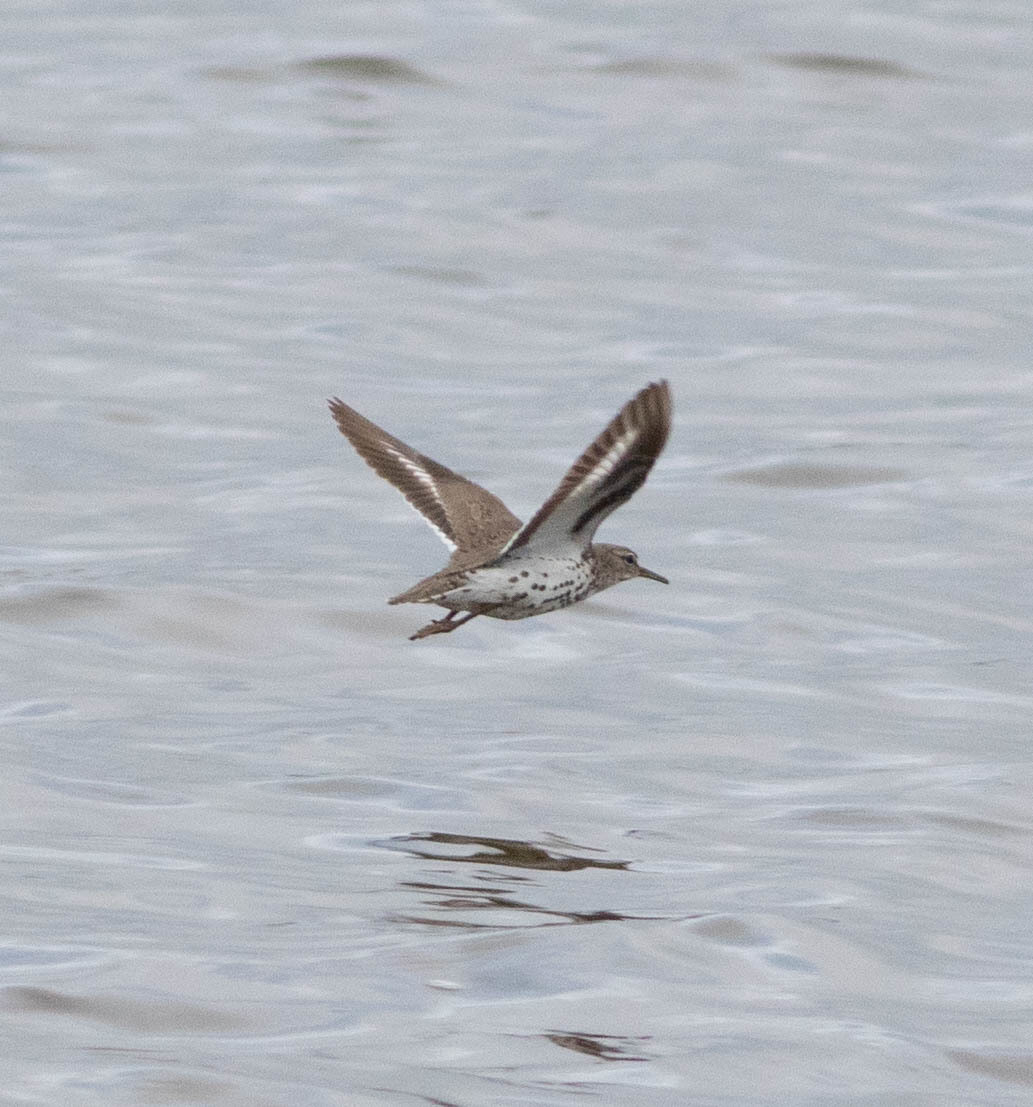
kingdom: Animalia
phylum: Chordata
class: Aves
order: Charadriiformes
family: Scolopacidae
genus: Actitis
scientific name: Actitis macularius
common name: Spotted sandpiper
